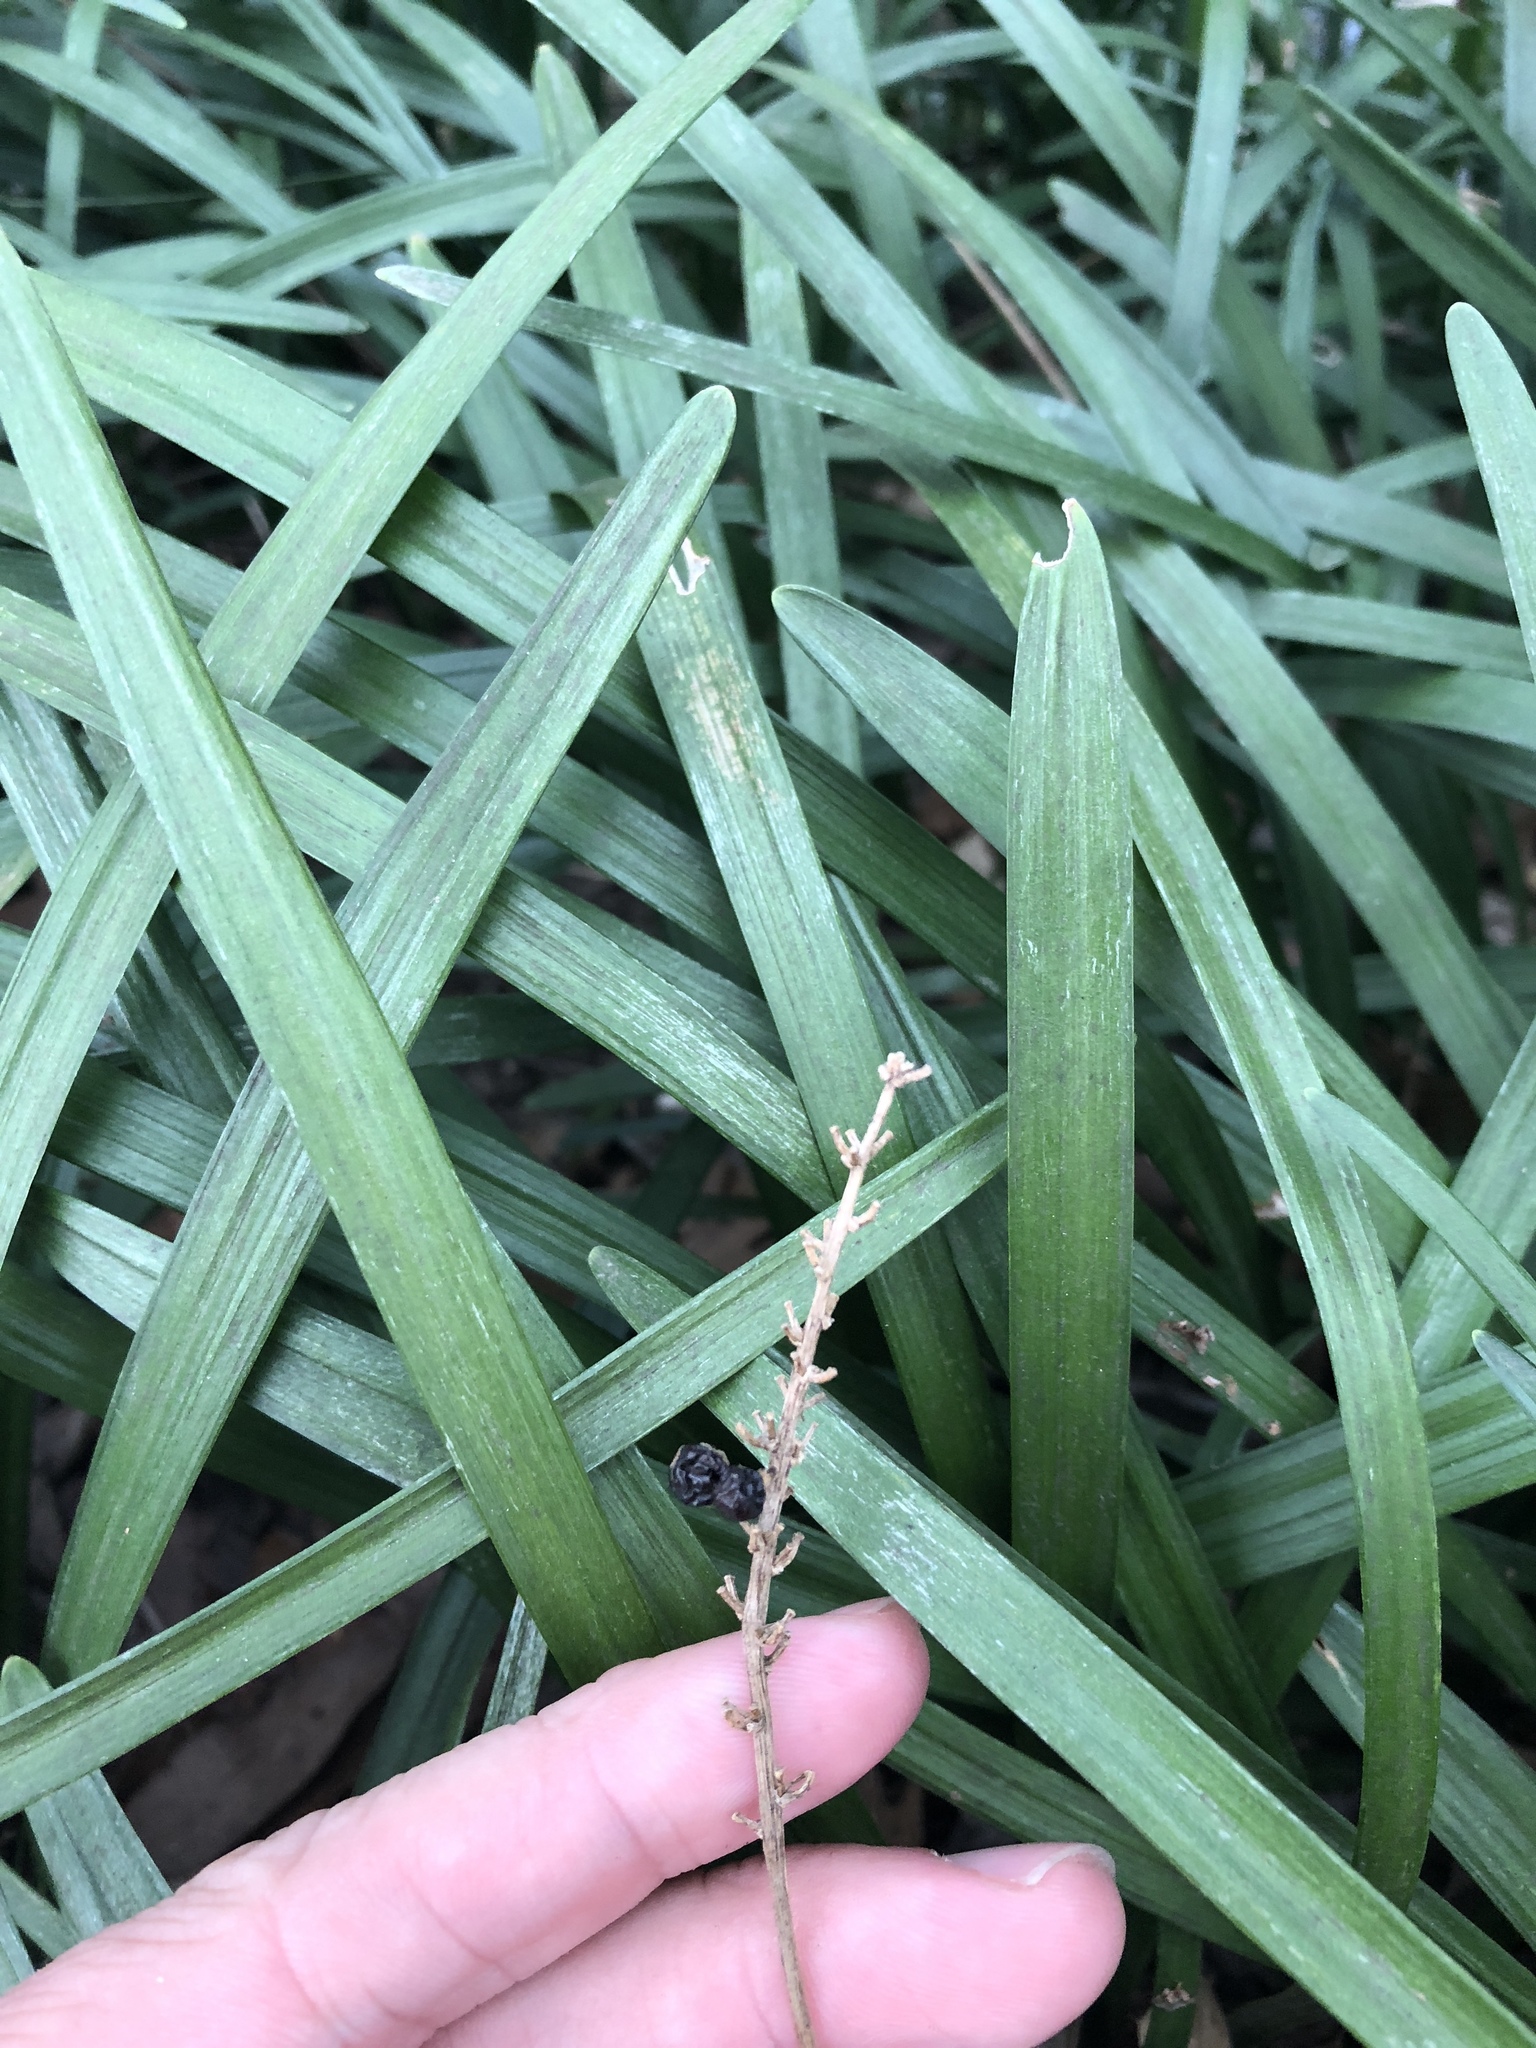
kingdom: Plantae
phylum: Tracheophyta
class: Liliopsida
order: Asparagales
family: Asparagaceae
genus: Liriope
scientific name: Liriope muscari
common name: Big blue lilyturf
